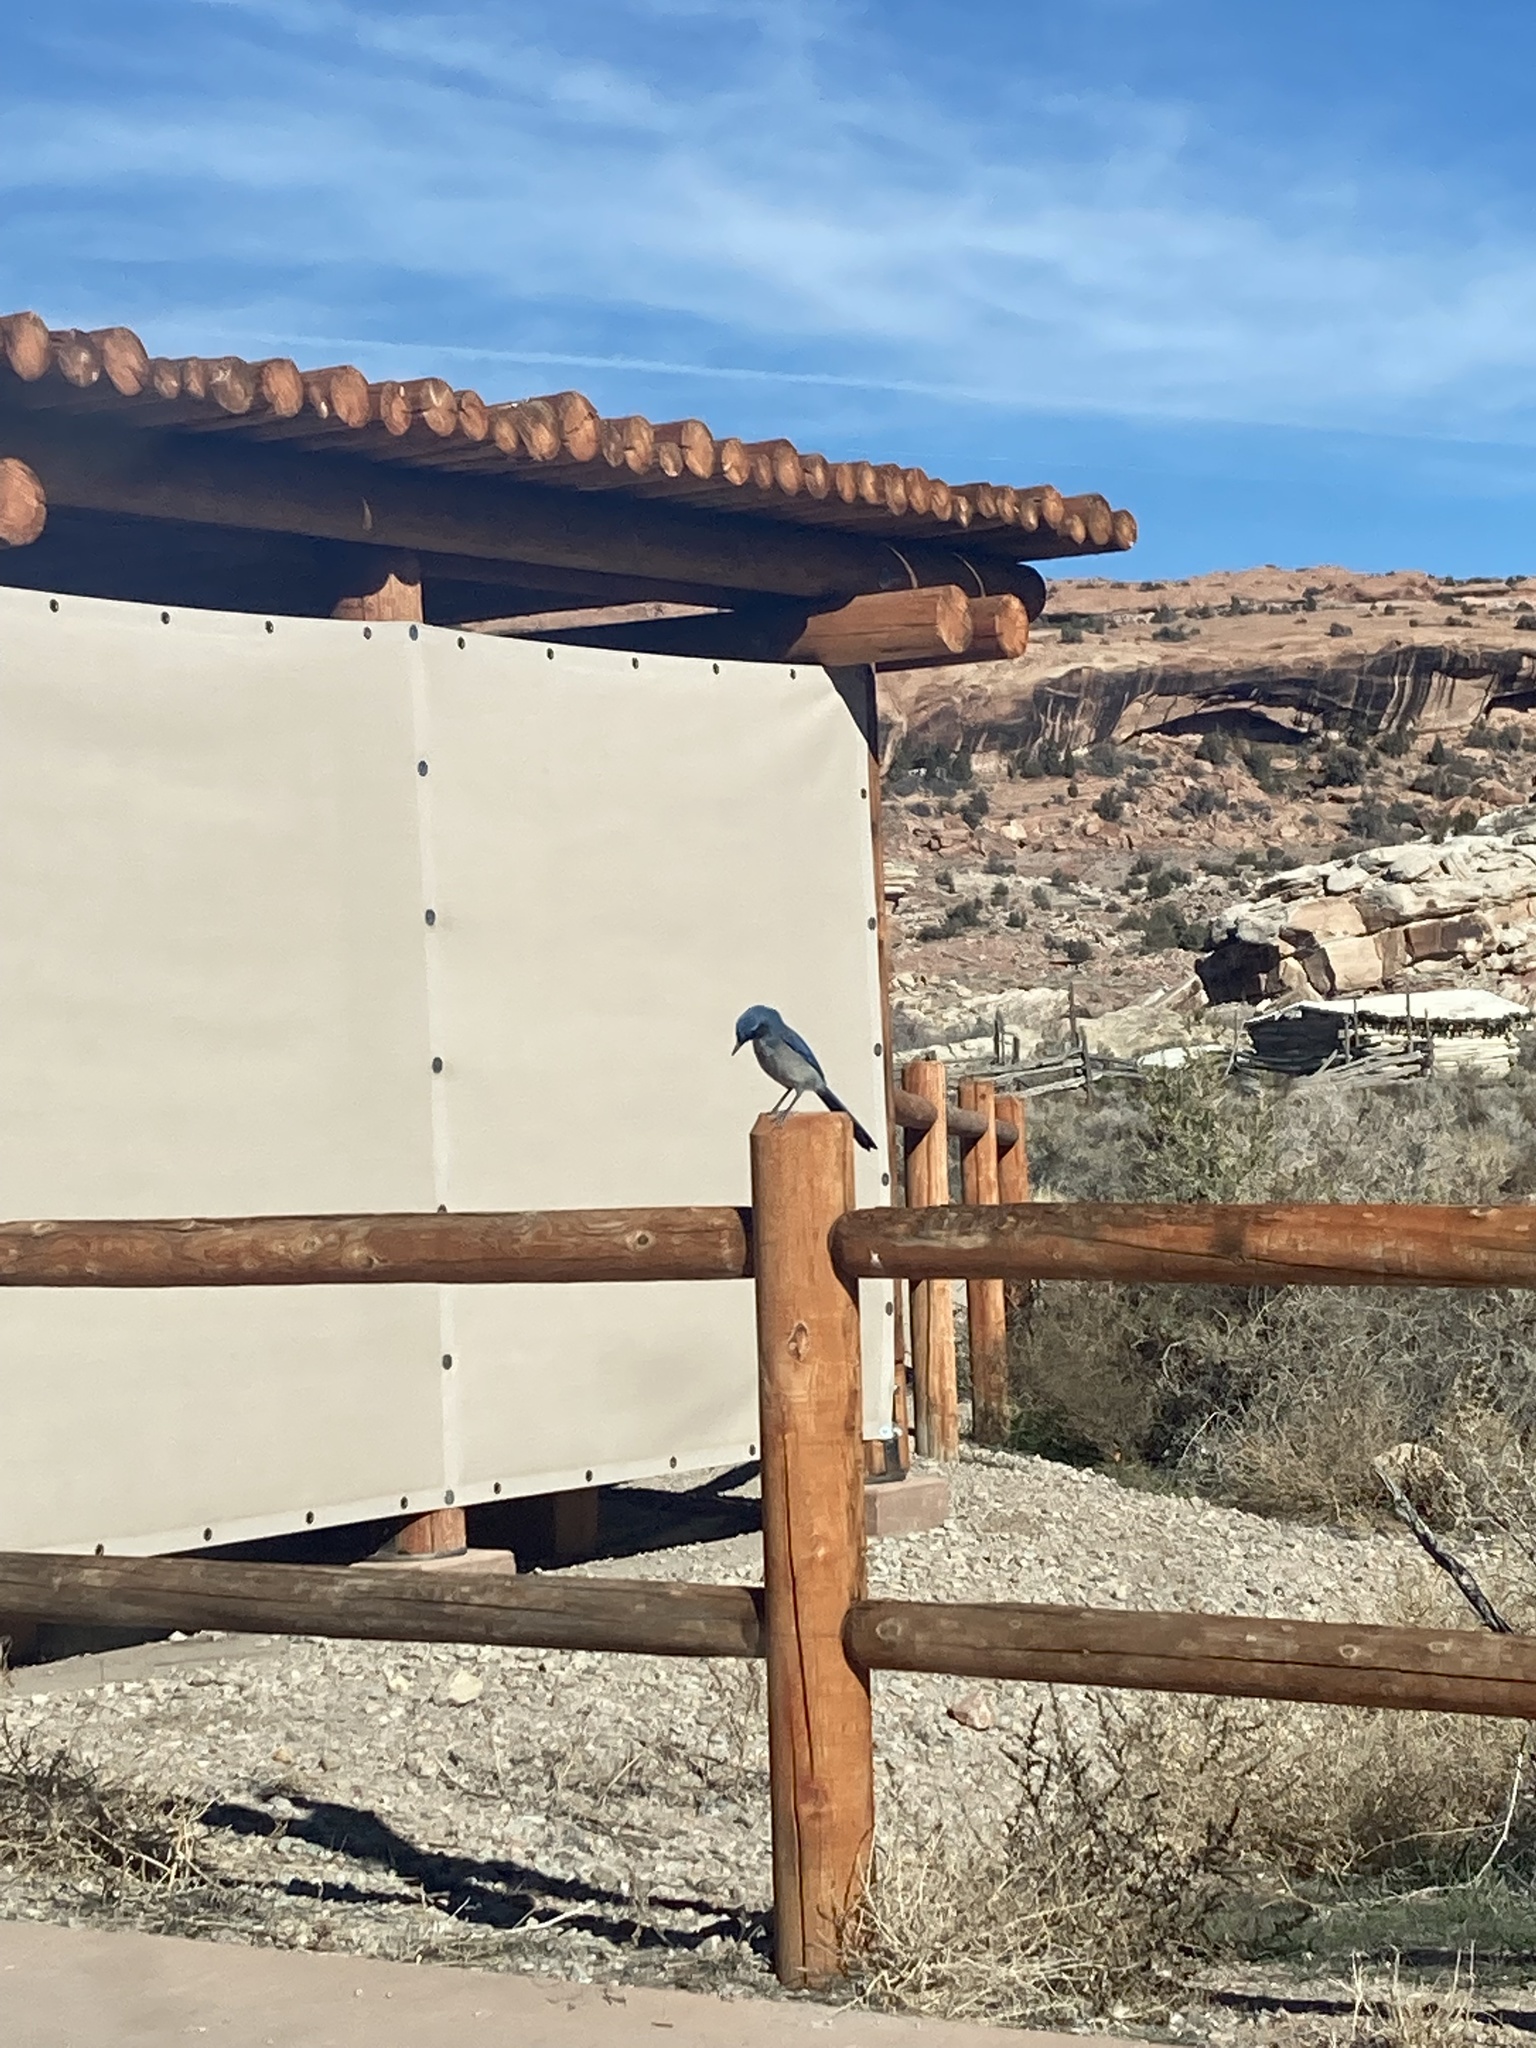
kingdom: Animalia
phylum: Chordata
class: Aves
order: Passeriformes
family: Corvidae
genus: Aphelocoma
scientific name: Aphelocoma woodhouseii
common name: Woodhouse's scrub-jay
